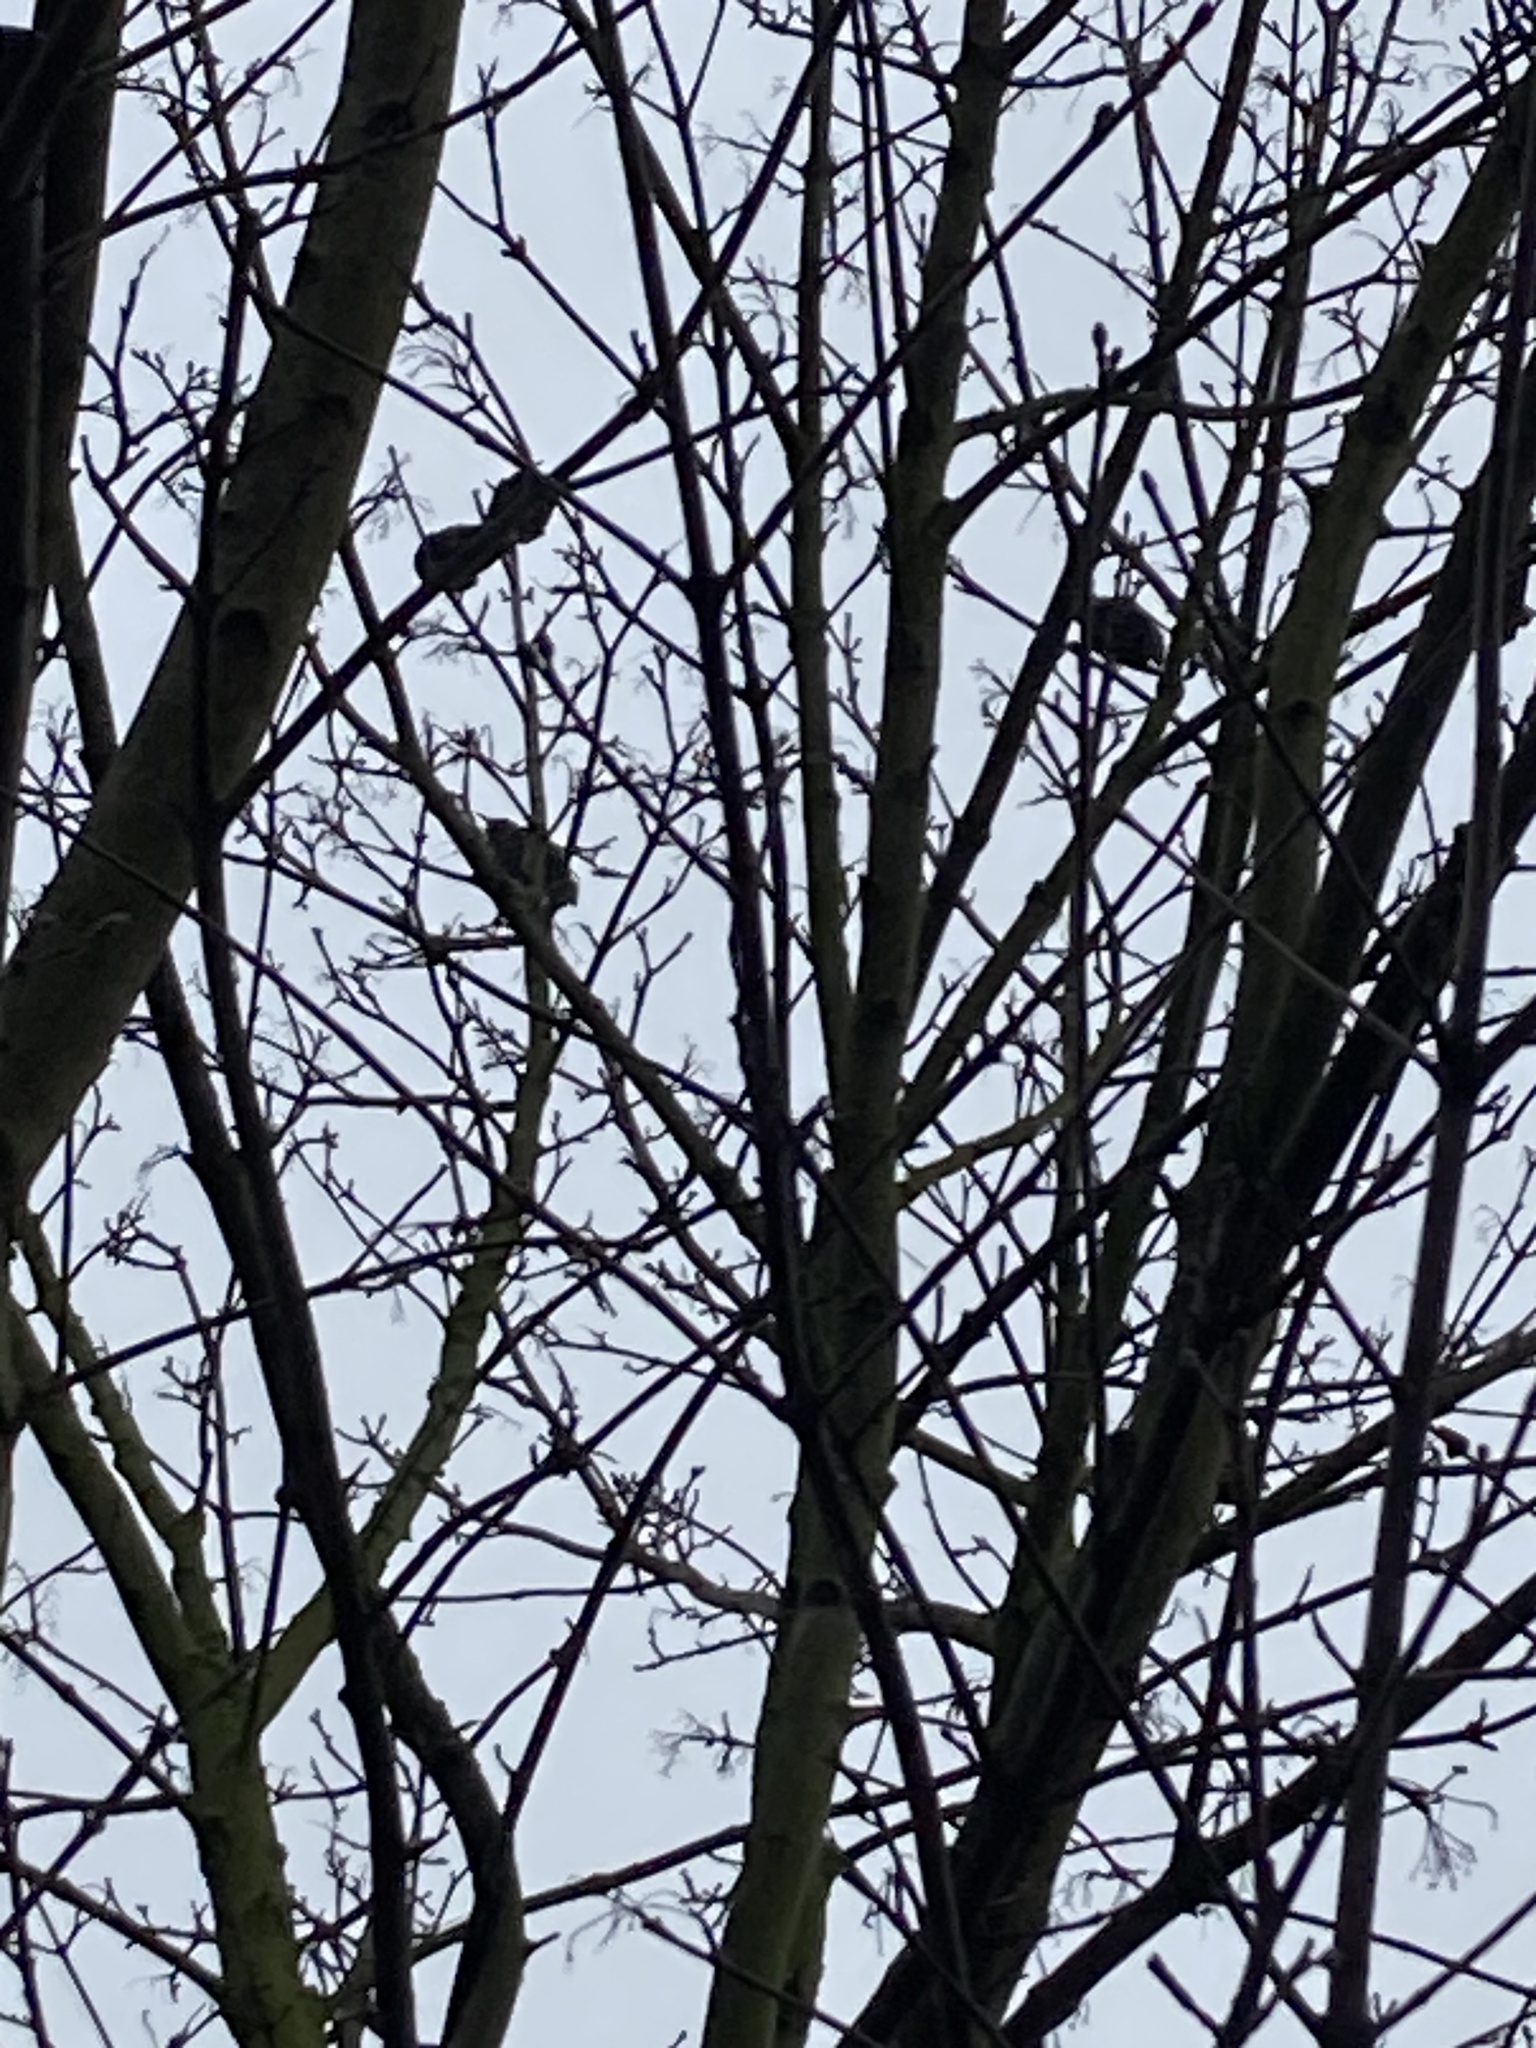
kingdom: Animalia
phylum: Chordata
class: Aves
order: Passeriformes
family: Sturnidae
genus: Sturnus
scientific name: Sturnus vulgaris
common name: Common starling
